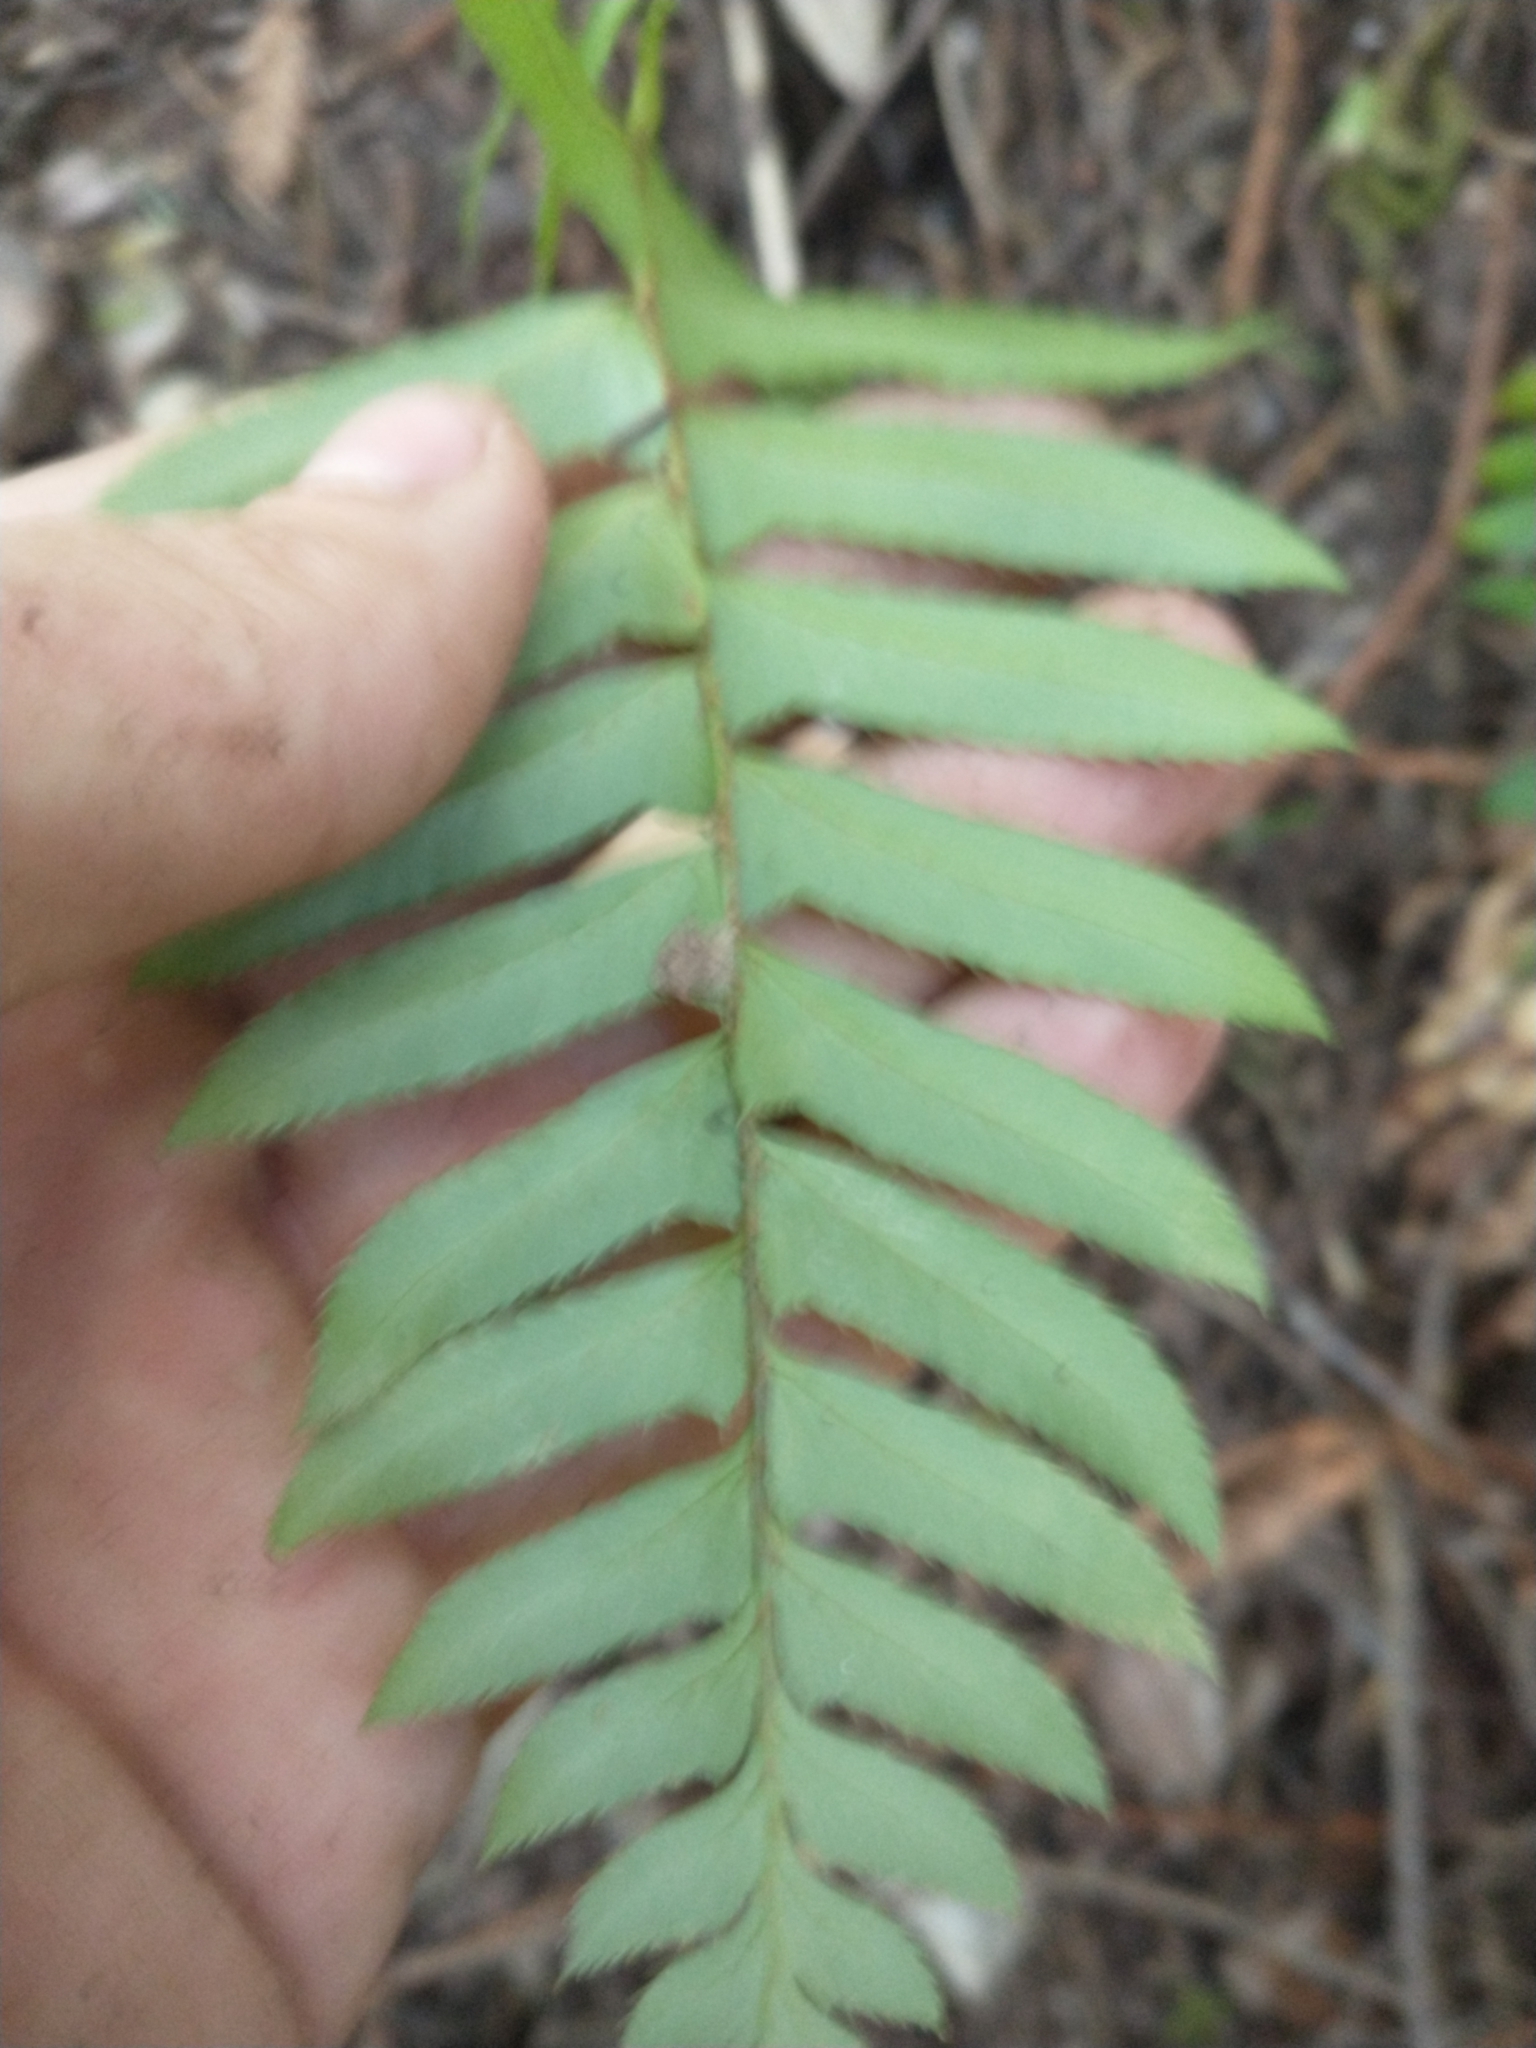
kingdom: Plantae
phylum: Tracheophyta
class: Polypodiopsida
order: Polypodiales
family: Dryopteridaceae
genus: Polystichum
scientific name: Polystichum munitum
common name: Western sword-fern
